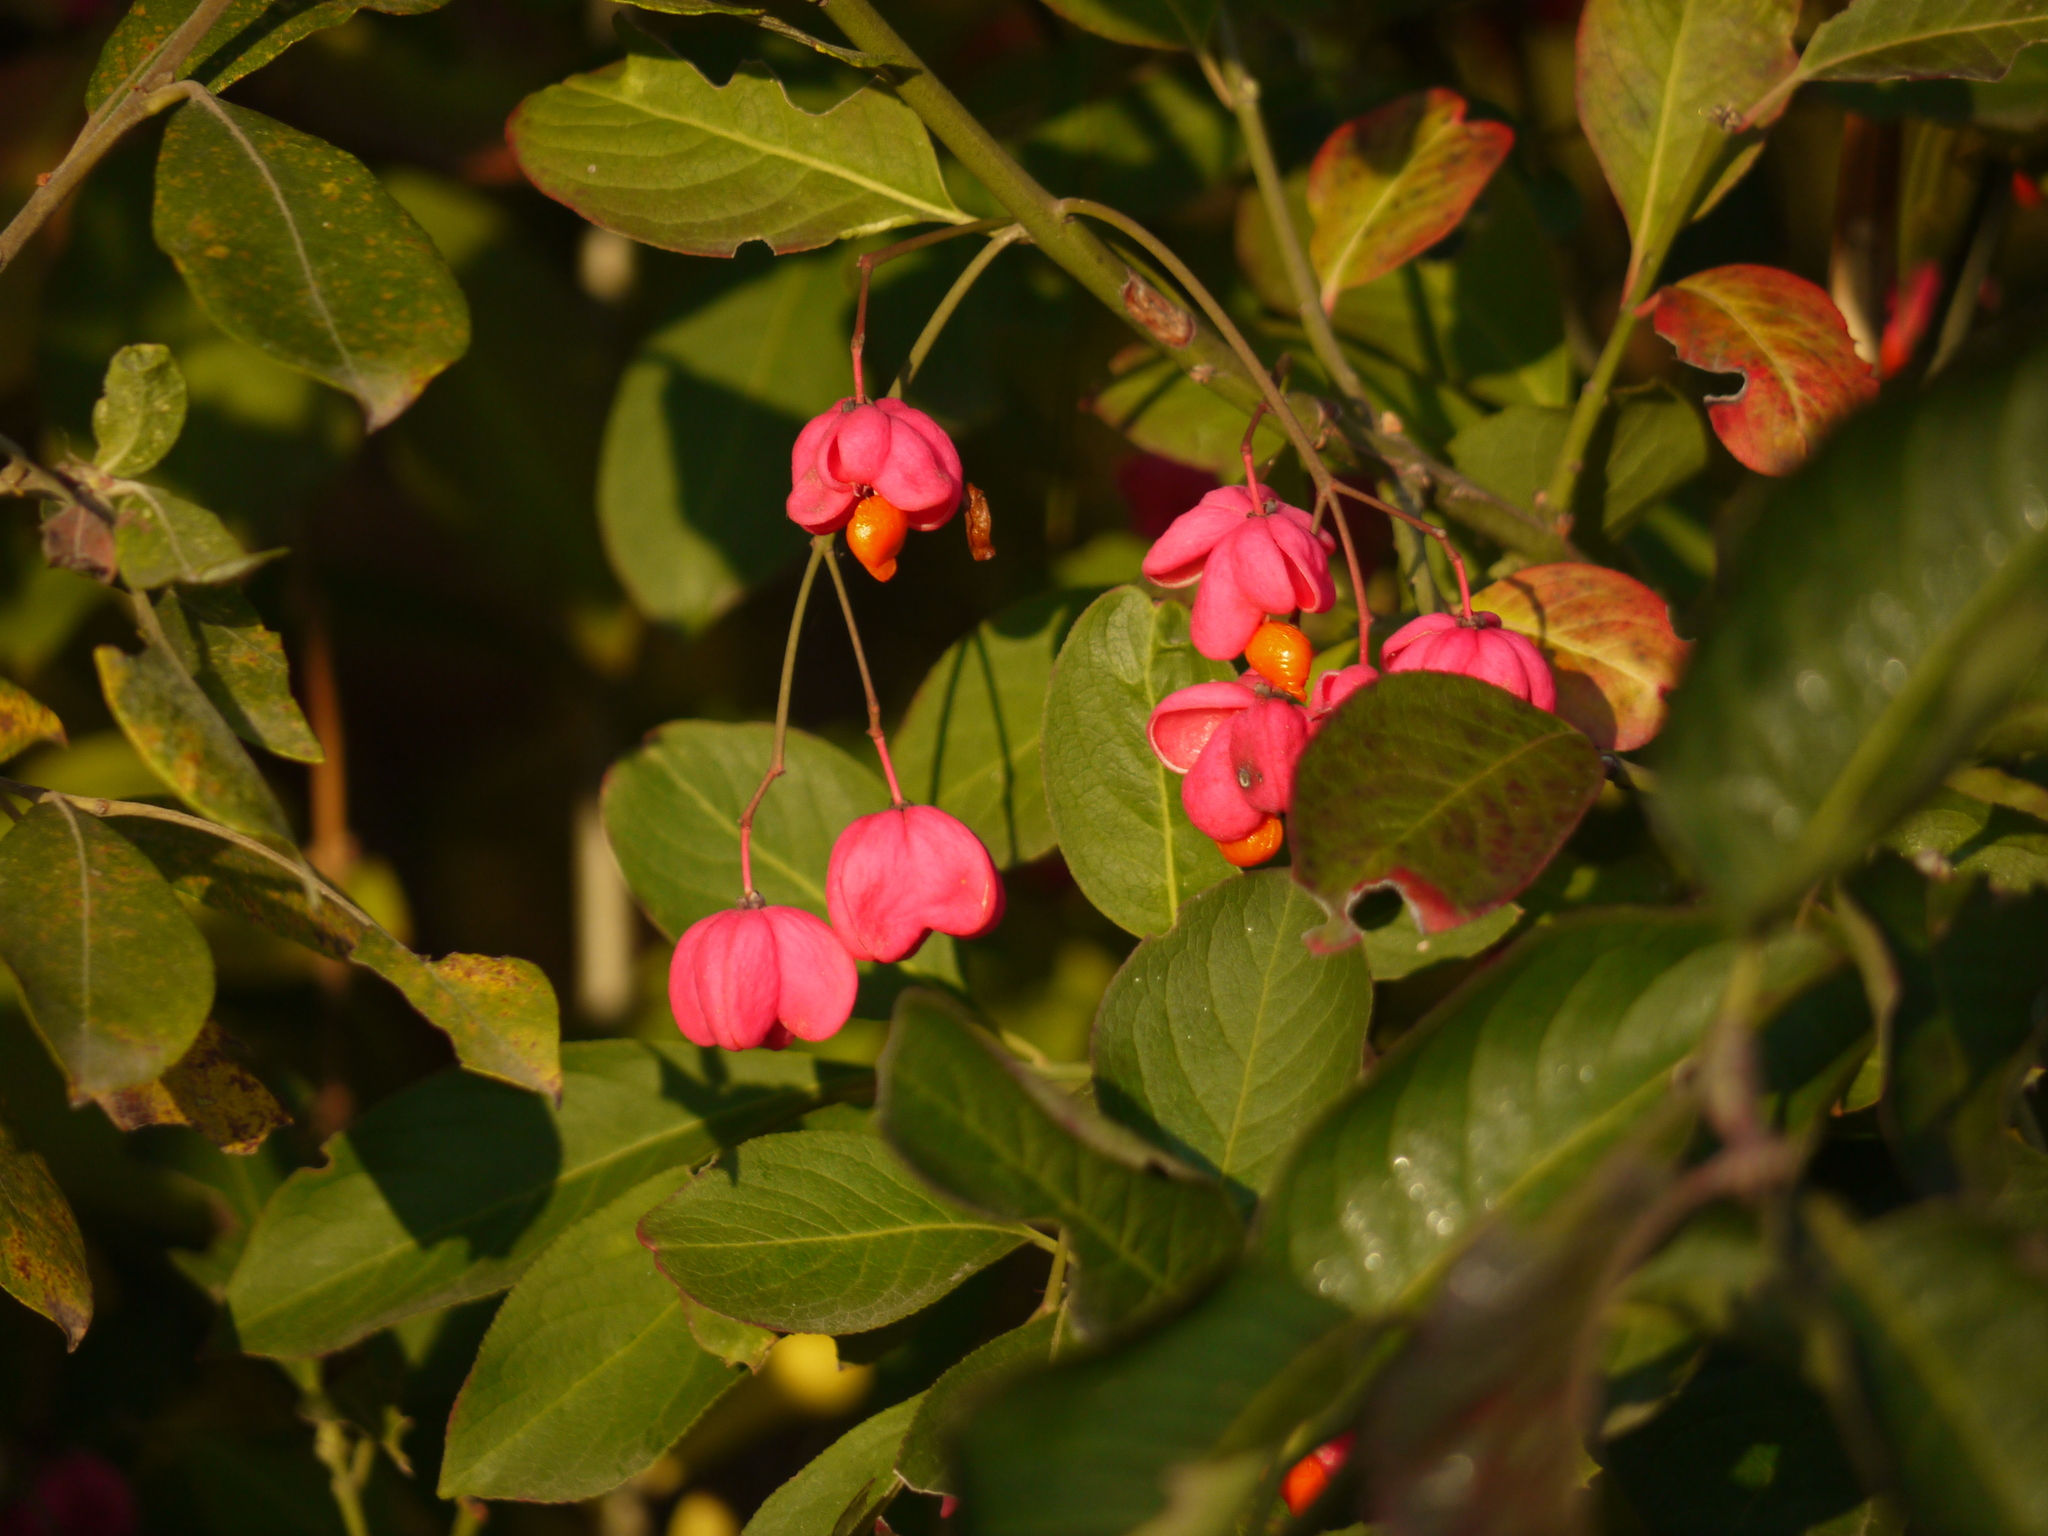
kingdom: Plantae
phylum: Tracheophyta
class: Magnoliopsida
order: Celastrales
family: Celastraceae
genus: Euonymus
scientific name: Euonymus europaeus
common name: Spindle
